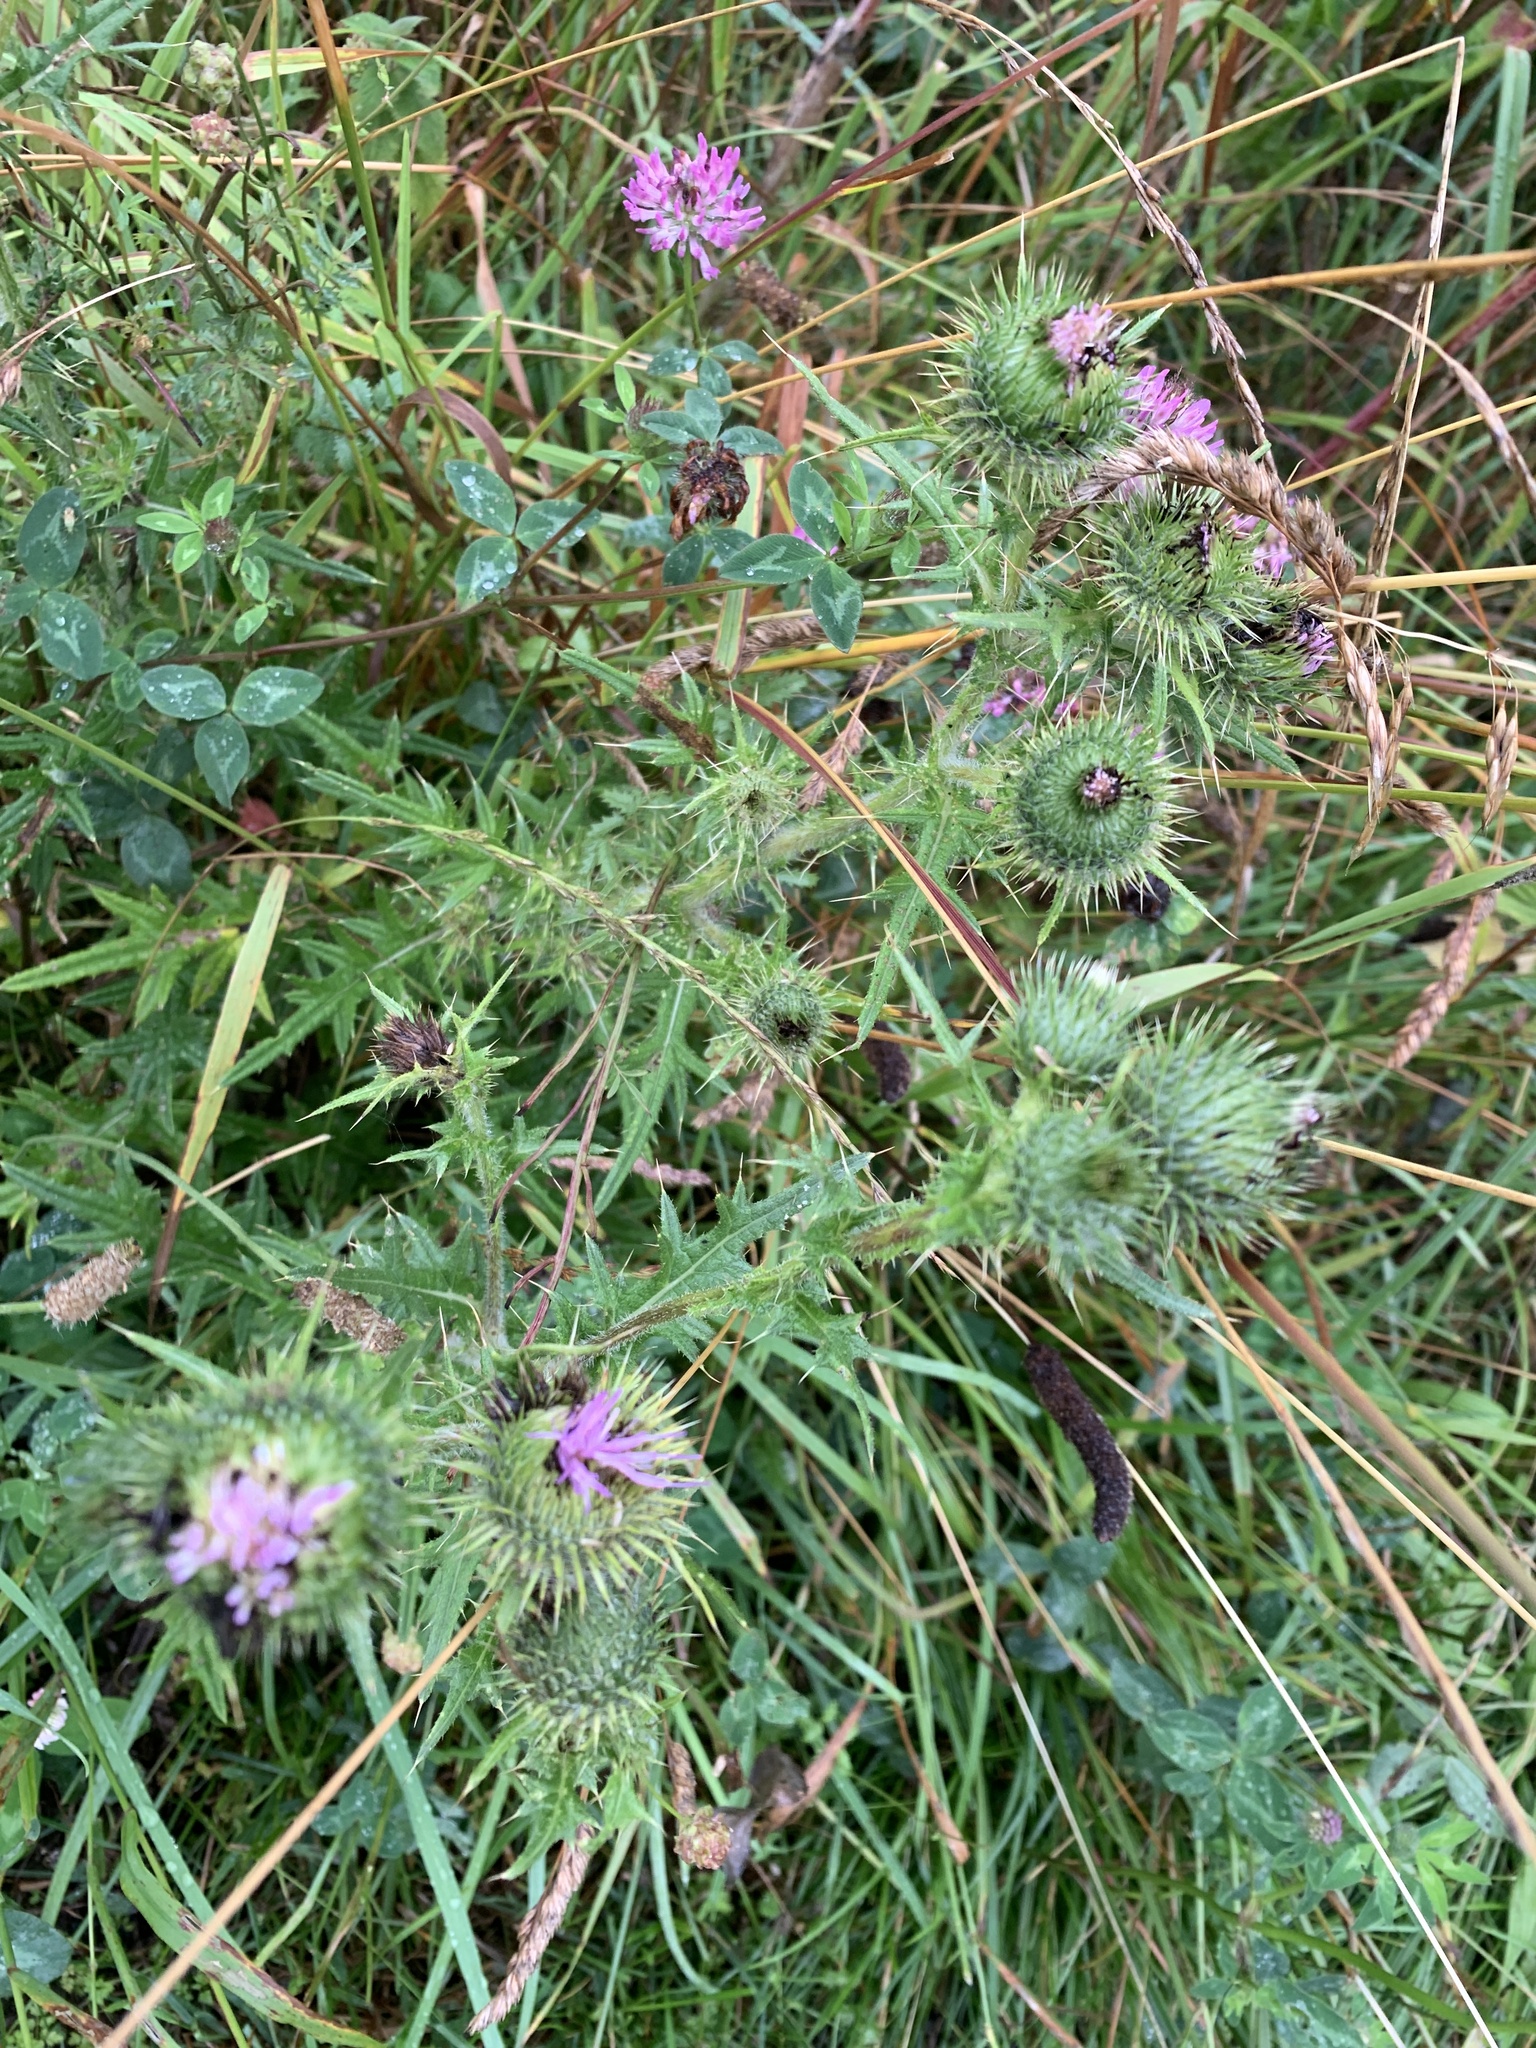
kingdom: Plantae
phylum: Tracheophyta
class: Magnoliopsida
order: Asterales
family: Asteraceae
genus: Cirsium
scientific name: Cirsium vulgare
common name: Bull thistle
